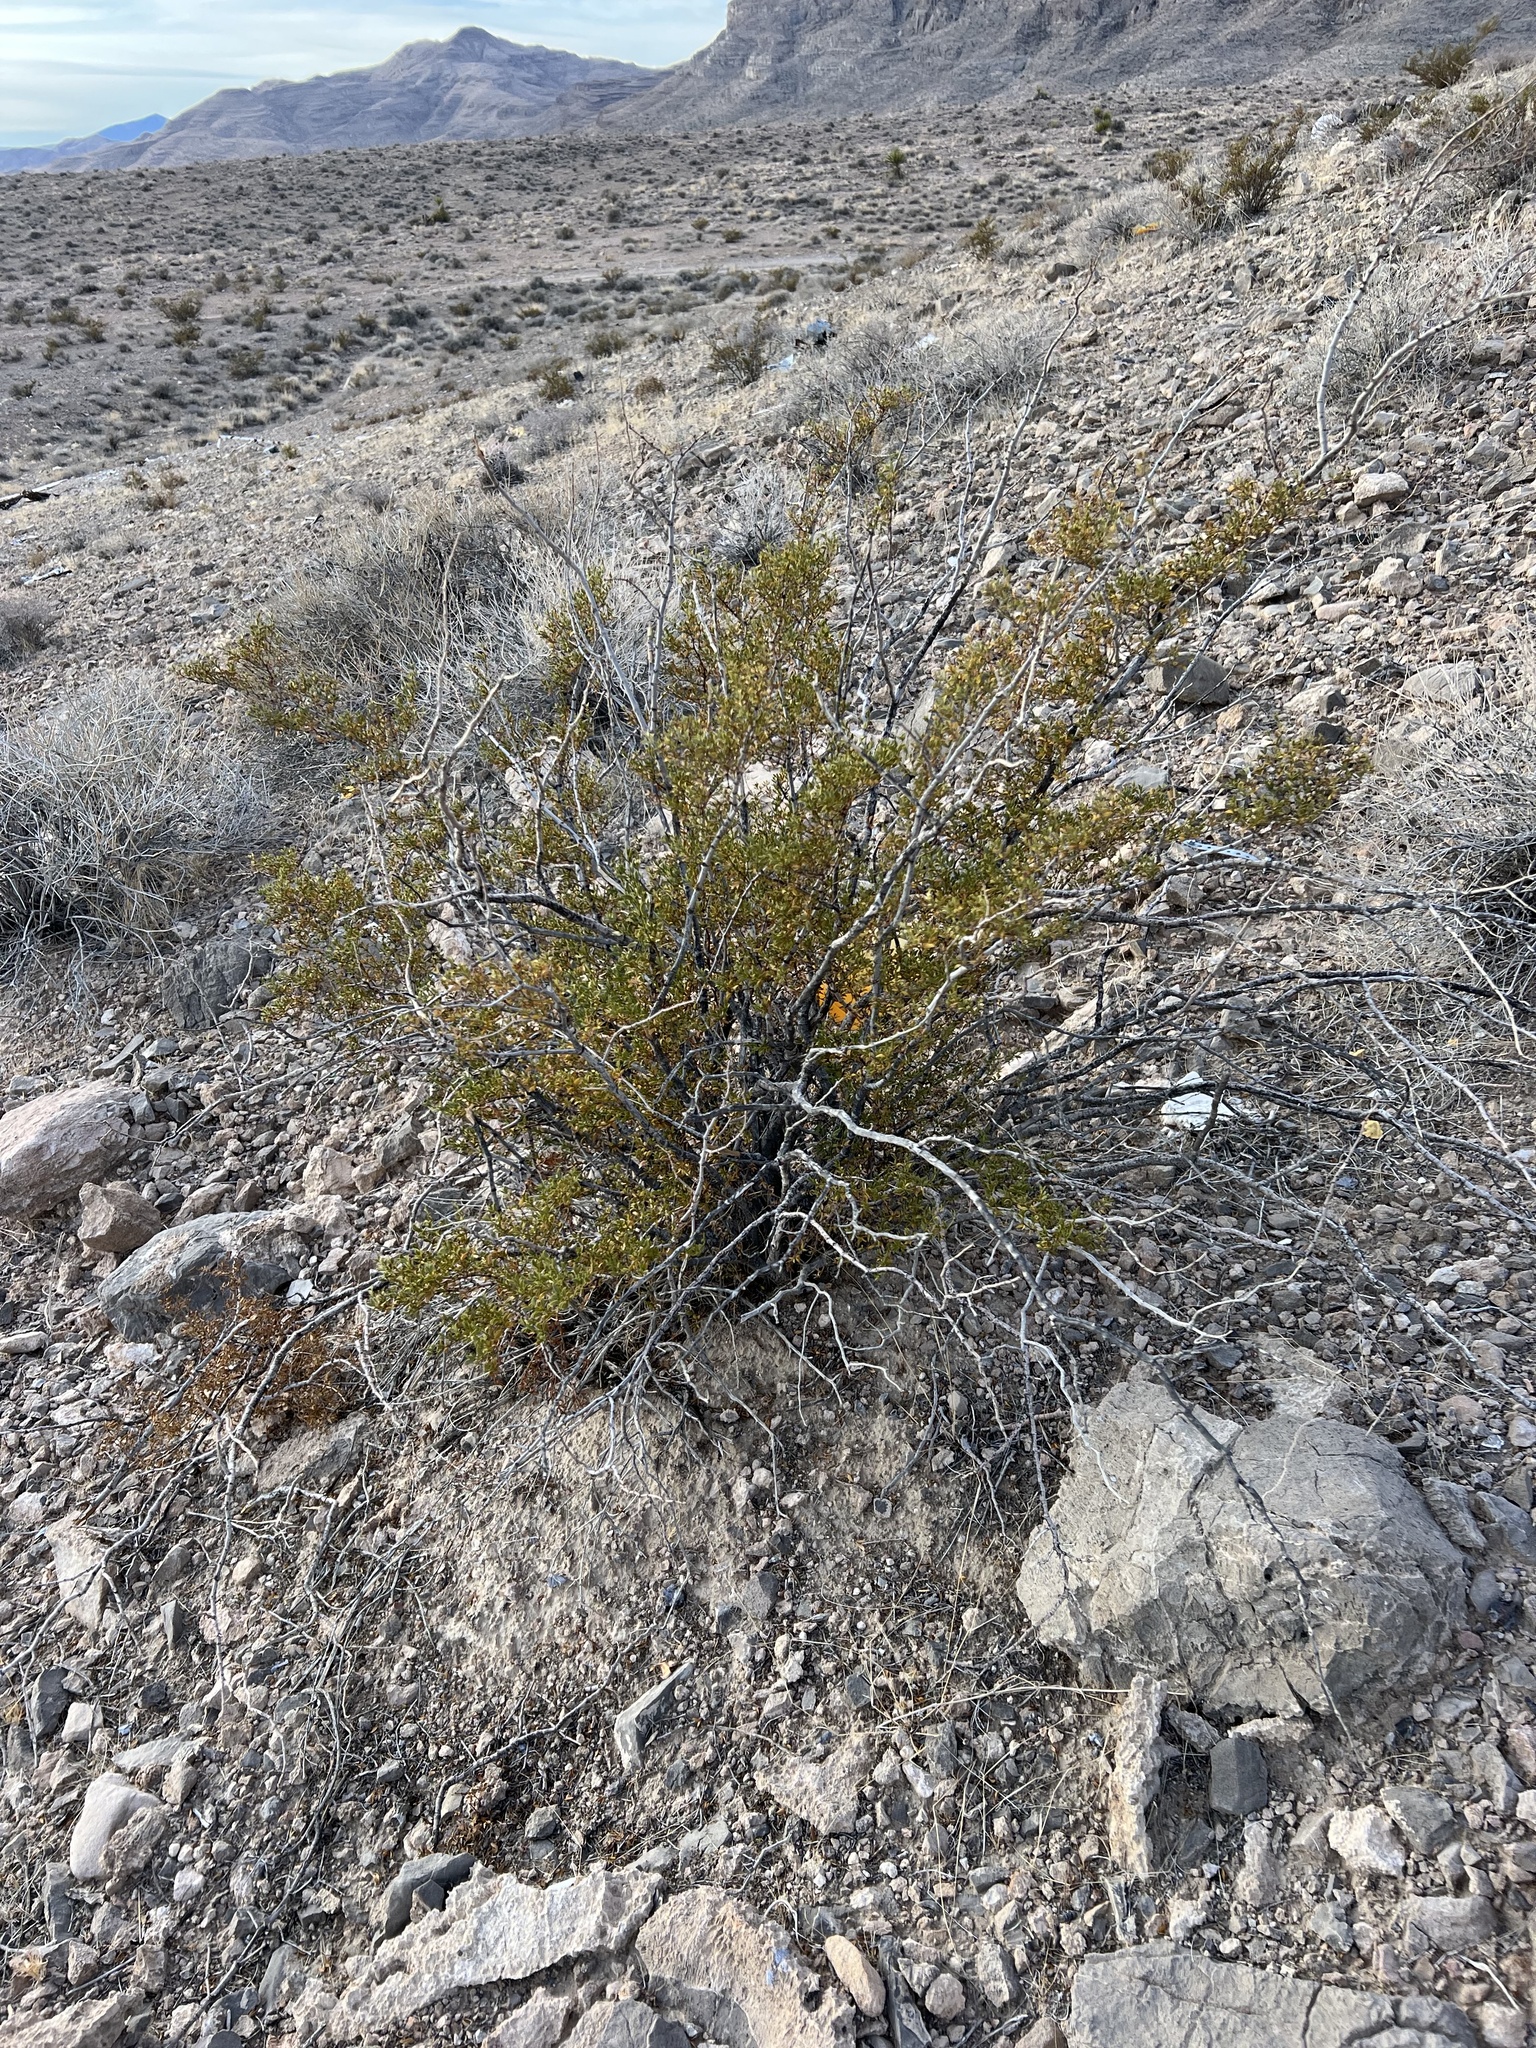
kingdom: Plantae
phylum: Tracheophyta
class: Magnoliopsida
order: Zygophyllales
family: Zygophyllaceae
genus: Larrea
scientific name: Larrea tridentata
